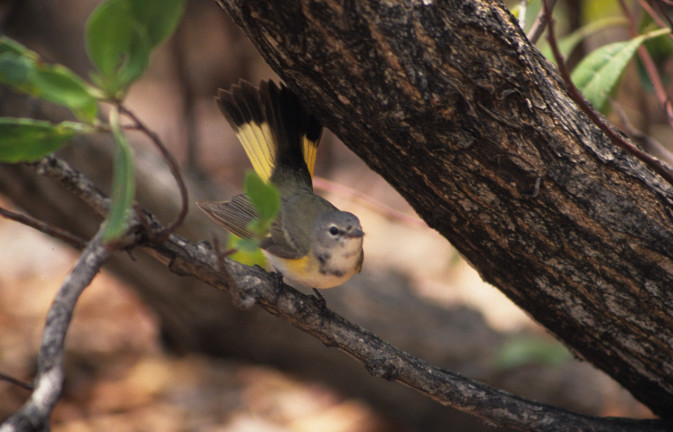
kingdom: Animalia
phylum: Chordata
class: Aves
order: Passeriformes
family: Parulidae
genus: Setophaga
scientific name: Setophaga ruticilla
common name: American redstart
